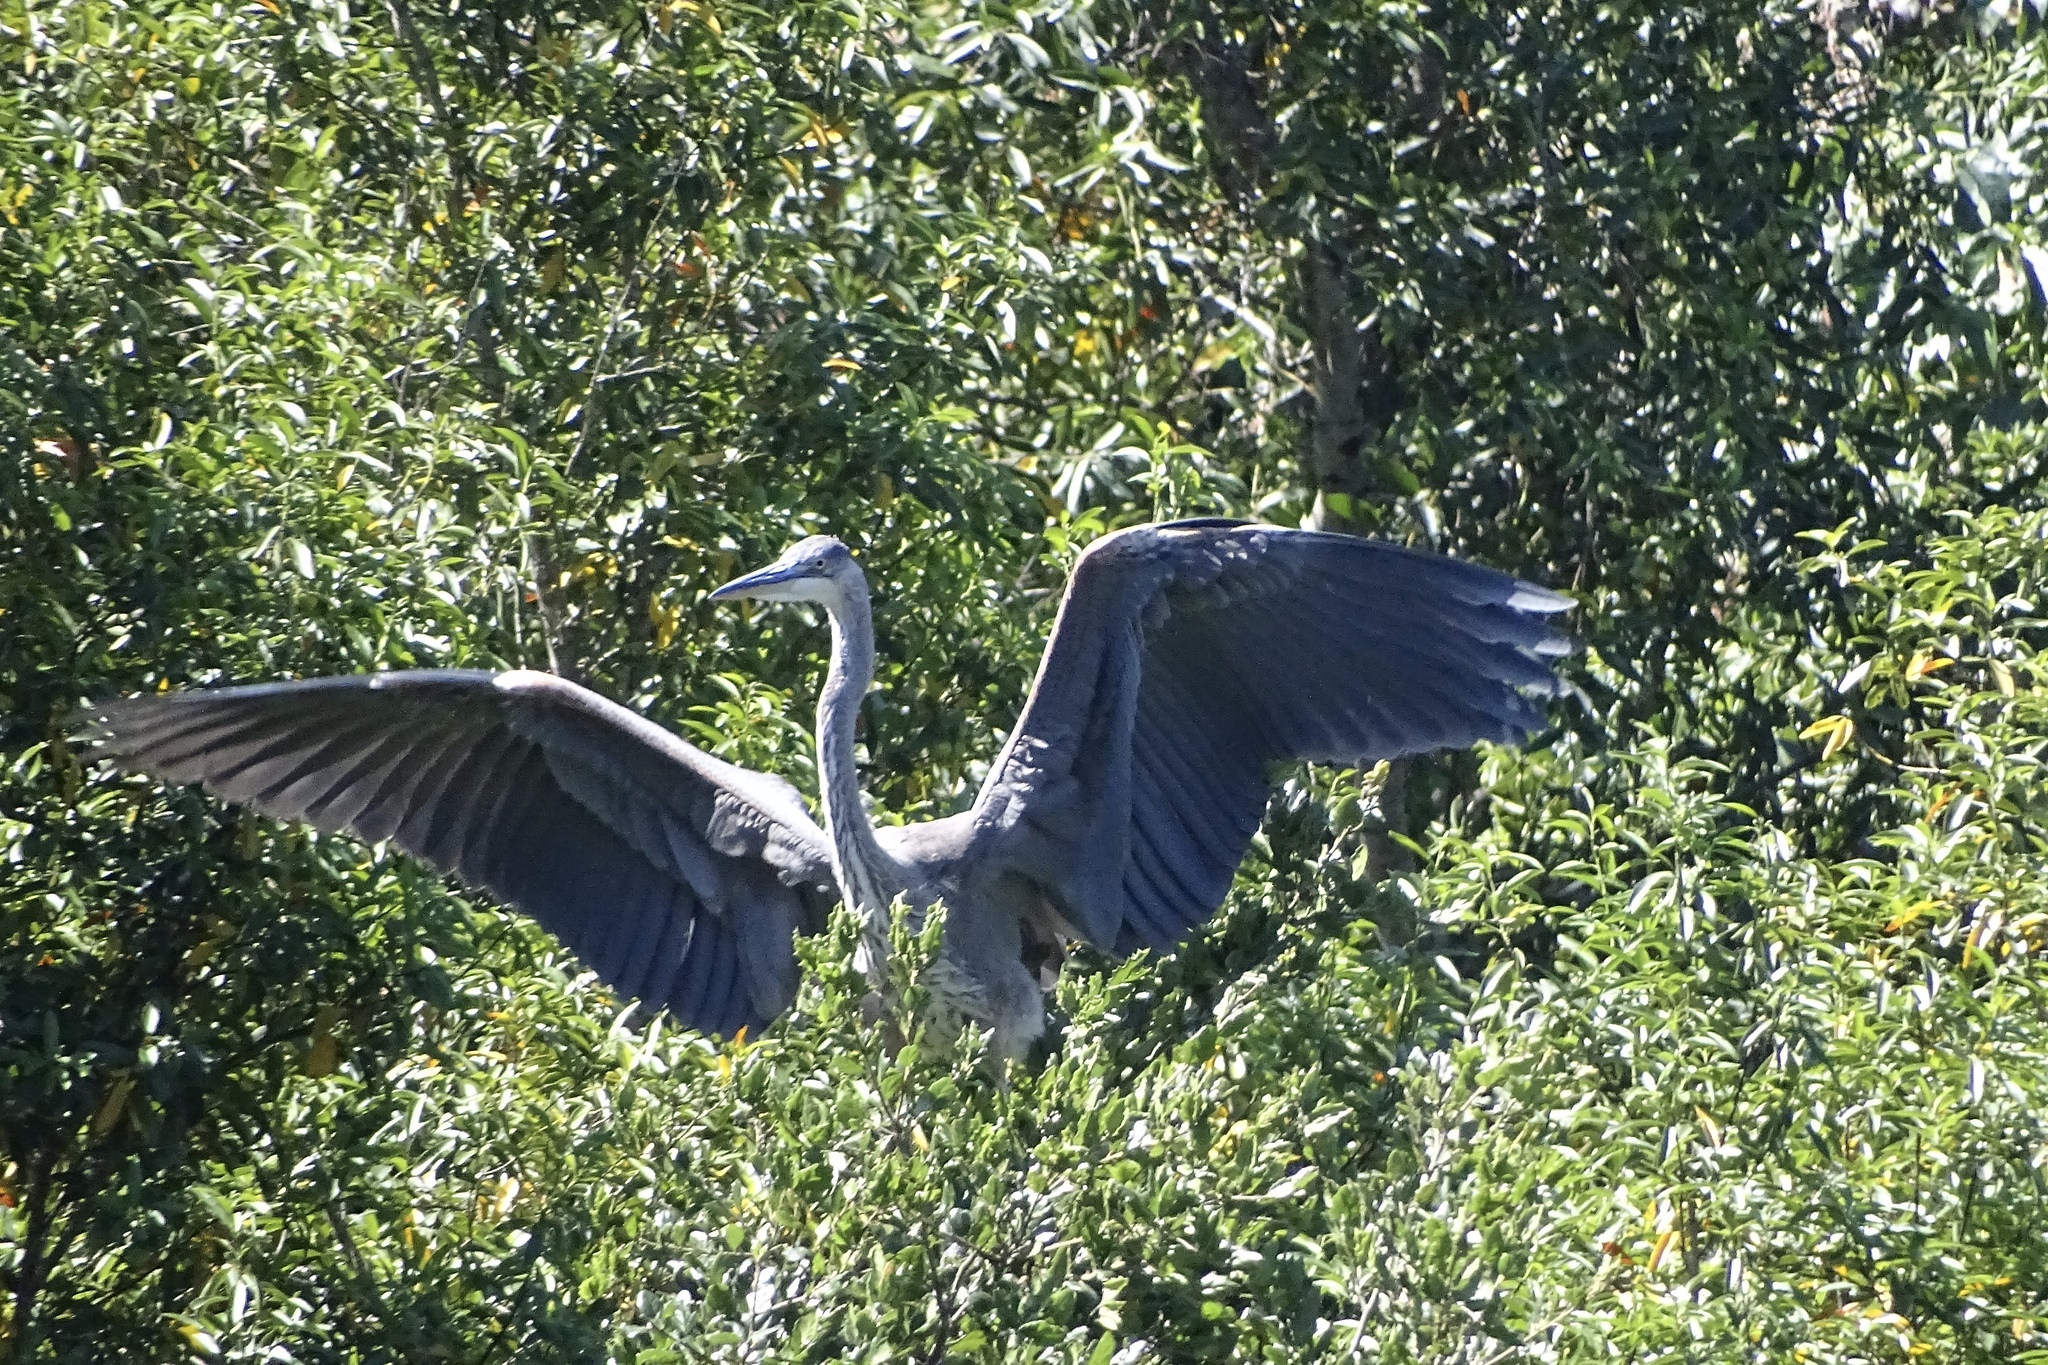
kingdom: Animalia
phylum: Chordata
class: Aves
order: Pelecaniformes
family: Ardeidae
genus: Ardea
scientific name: Ardea herodias
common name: Great blue heron
